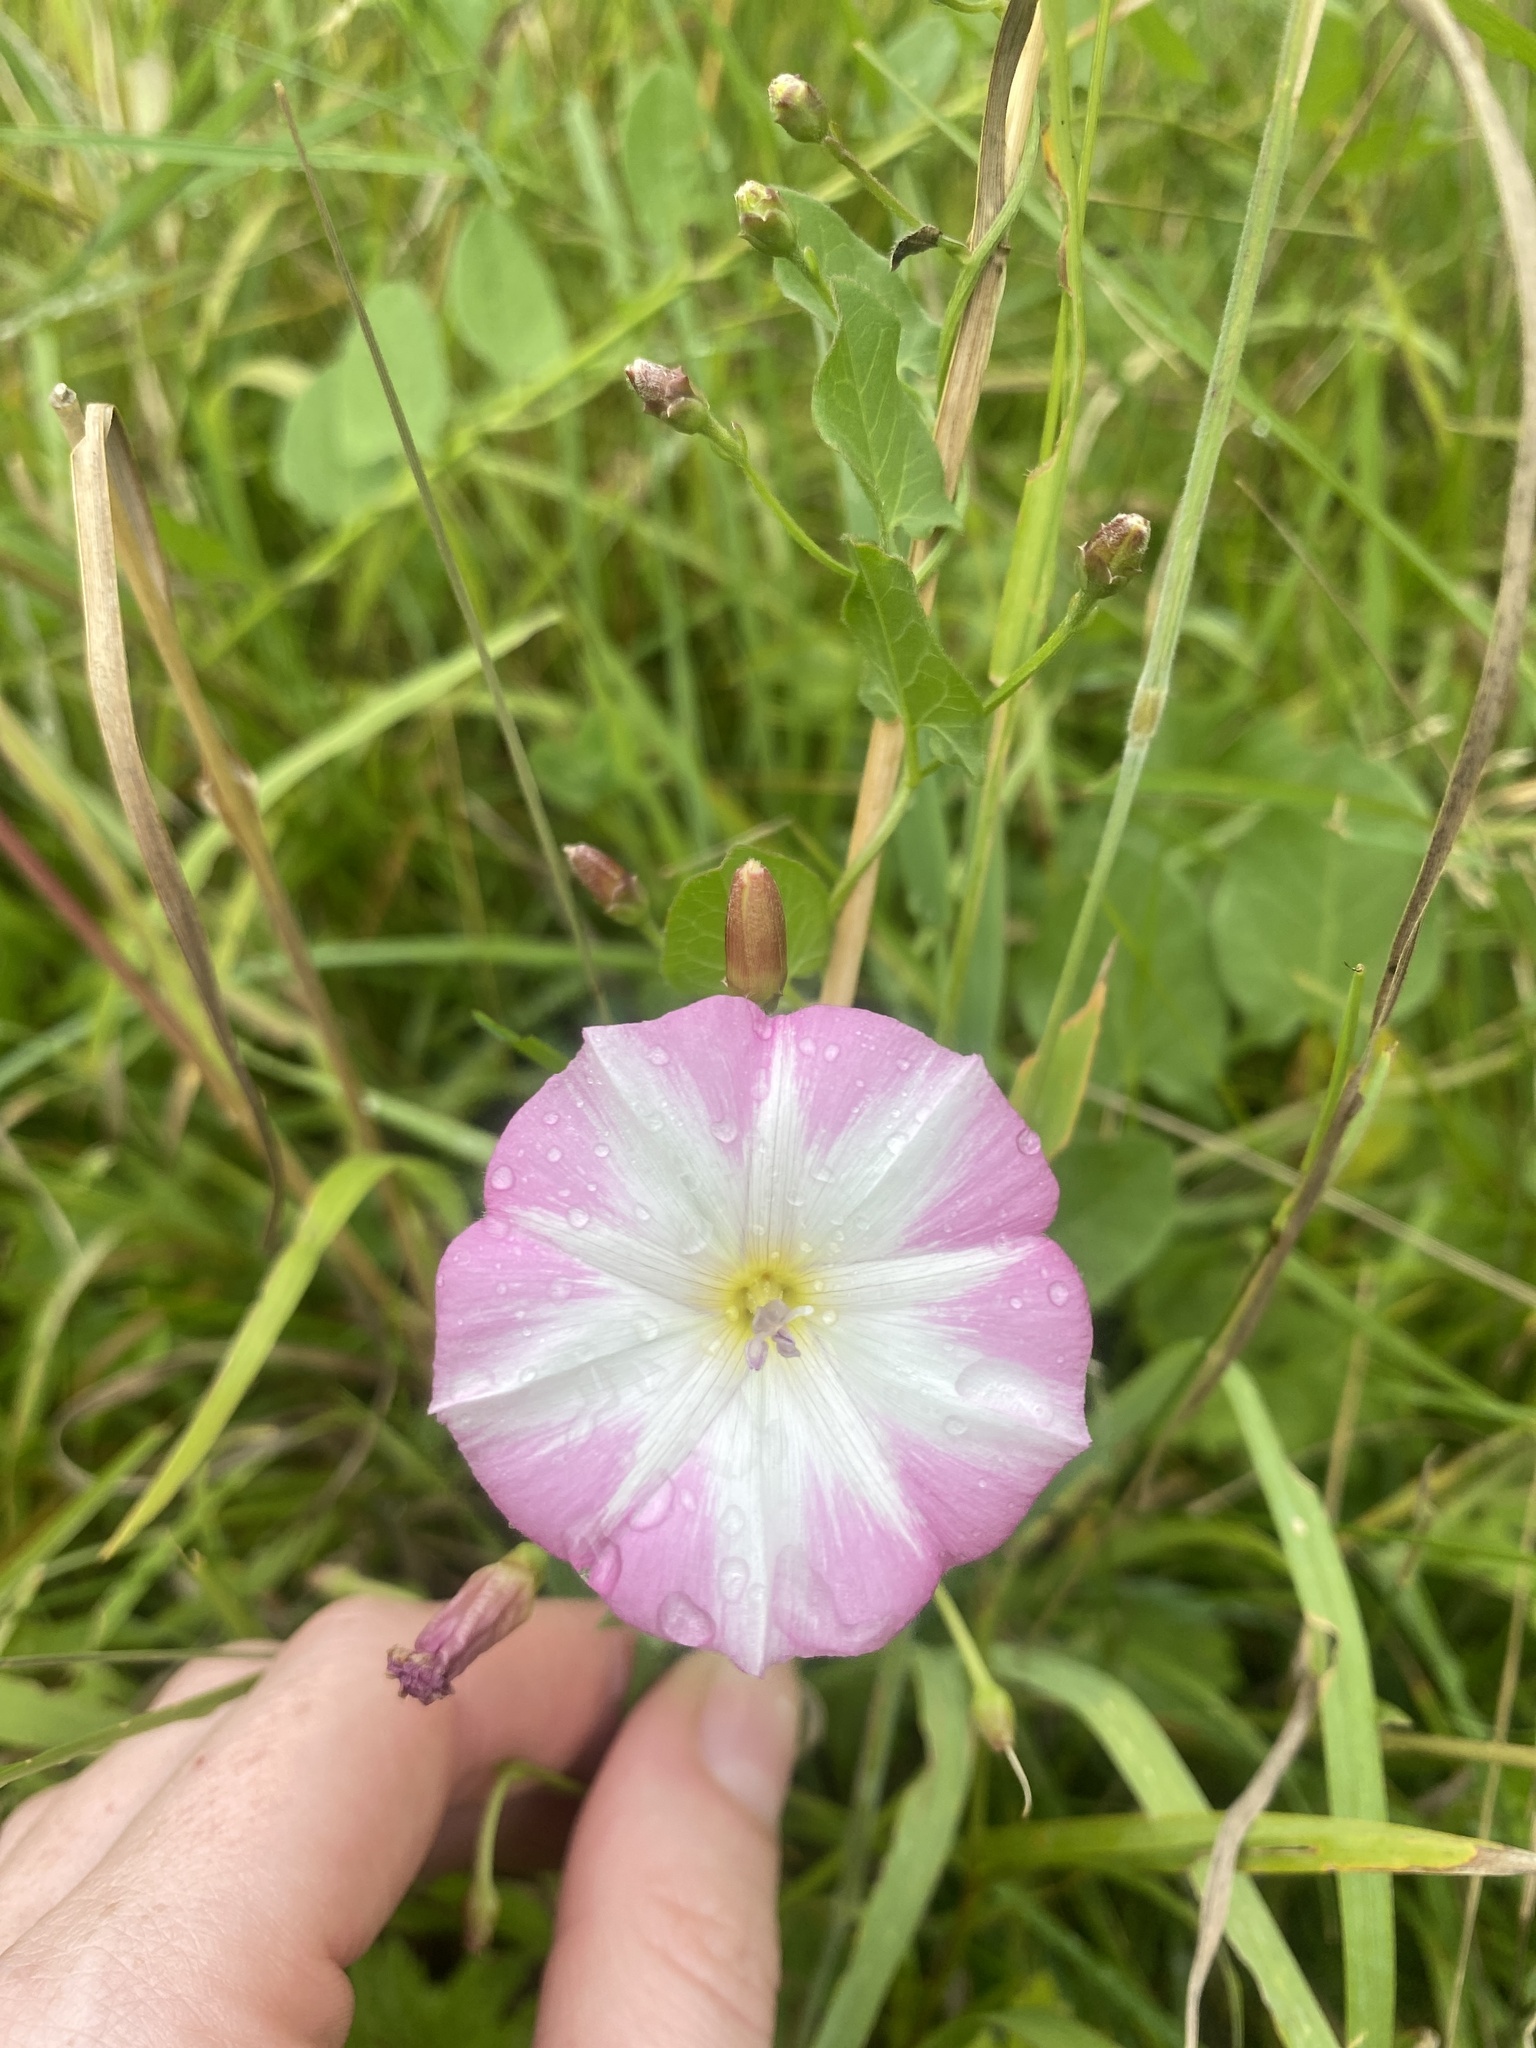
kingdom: Plantae
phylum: Tracheophyta
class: Magnoliopsida
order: Solanales
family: Convolvulaceae
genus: Convolvulus
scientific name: Convolvulus arvensis
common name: Field bindweed
